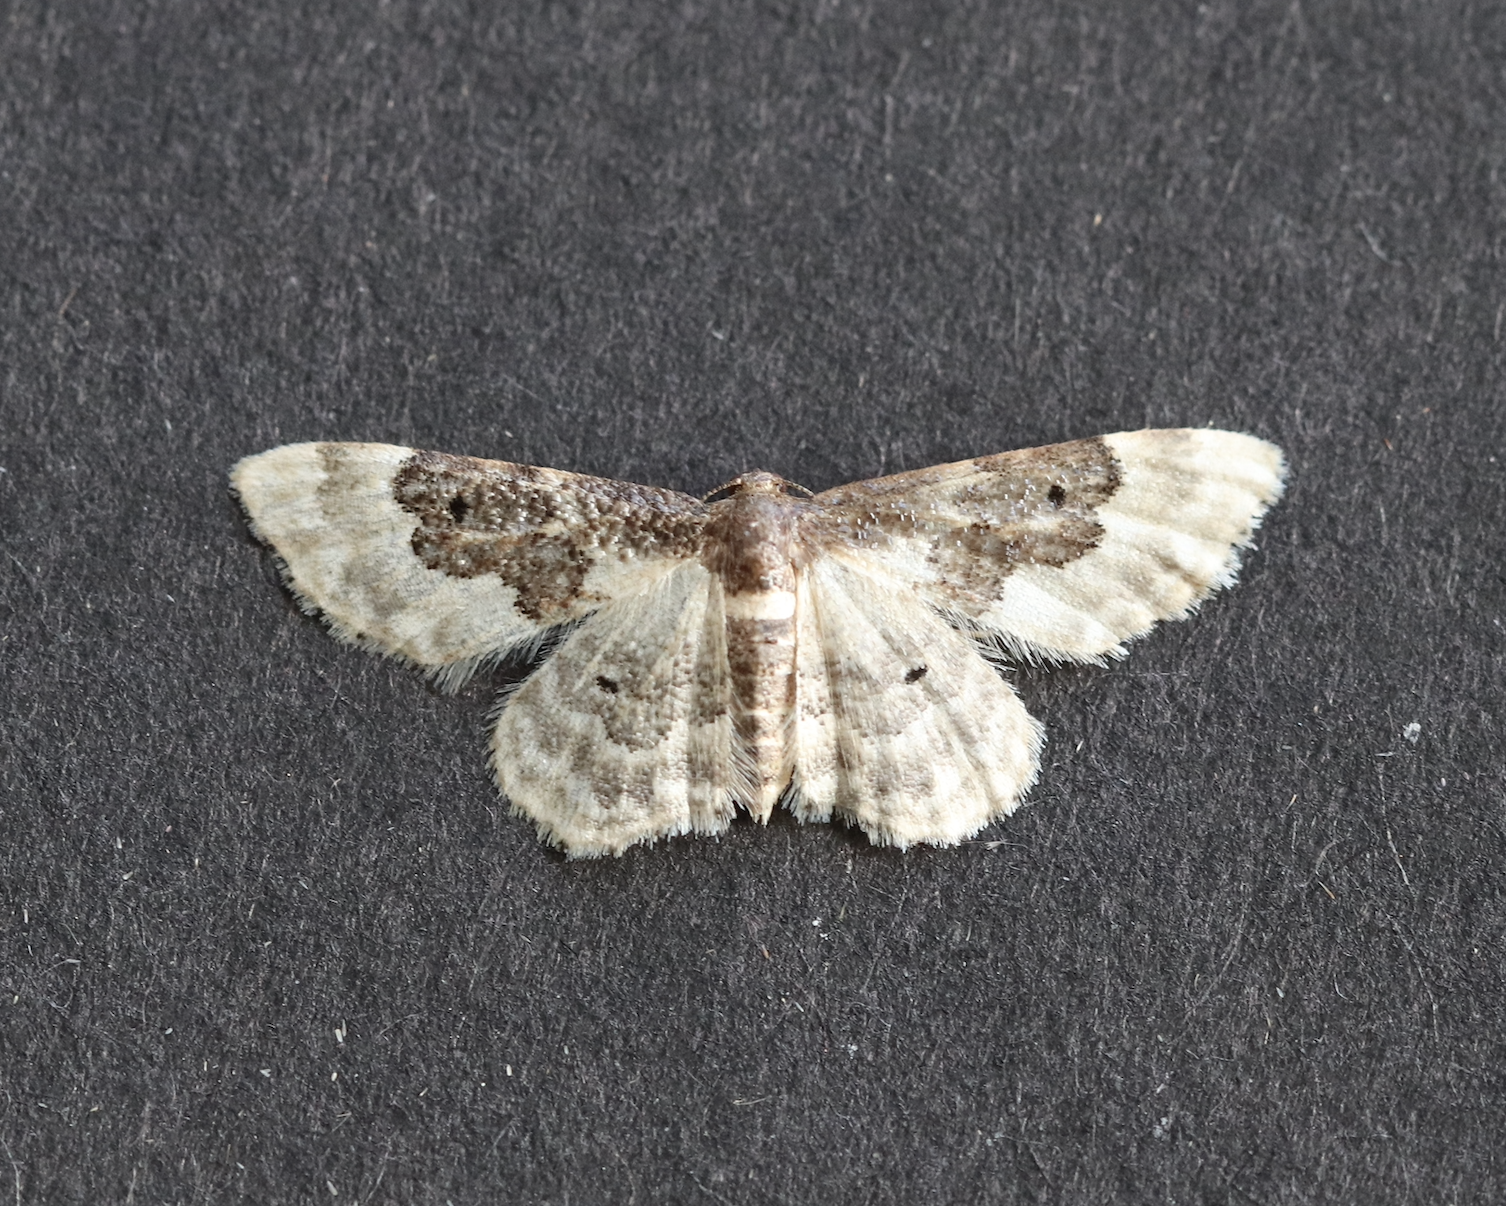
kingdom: Animalia
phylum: Arthropoda
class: Insecta
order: Lepidoptera
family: Geometridae
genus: Idaea
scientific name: Idaea rusticata
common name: Least carpet
